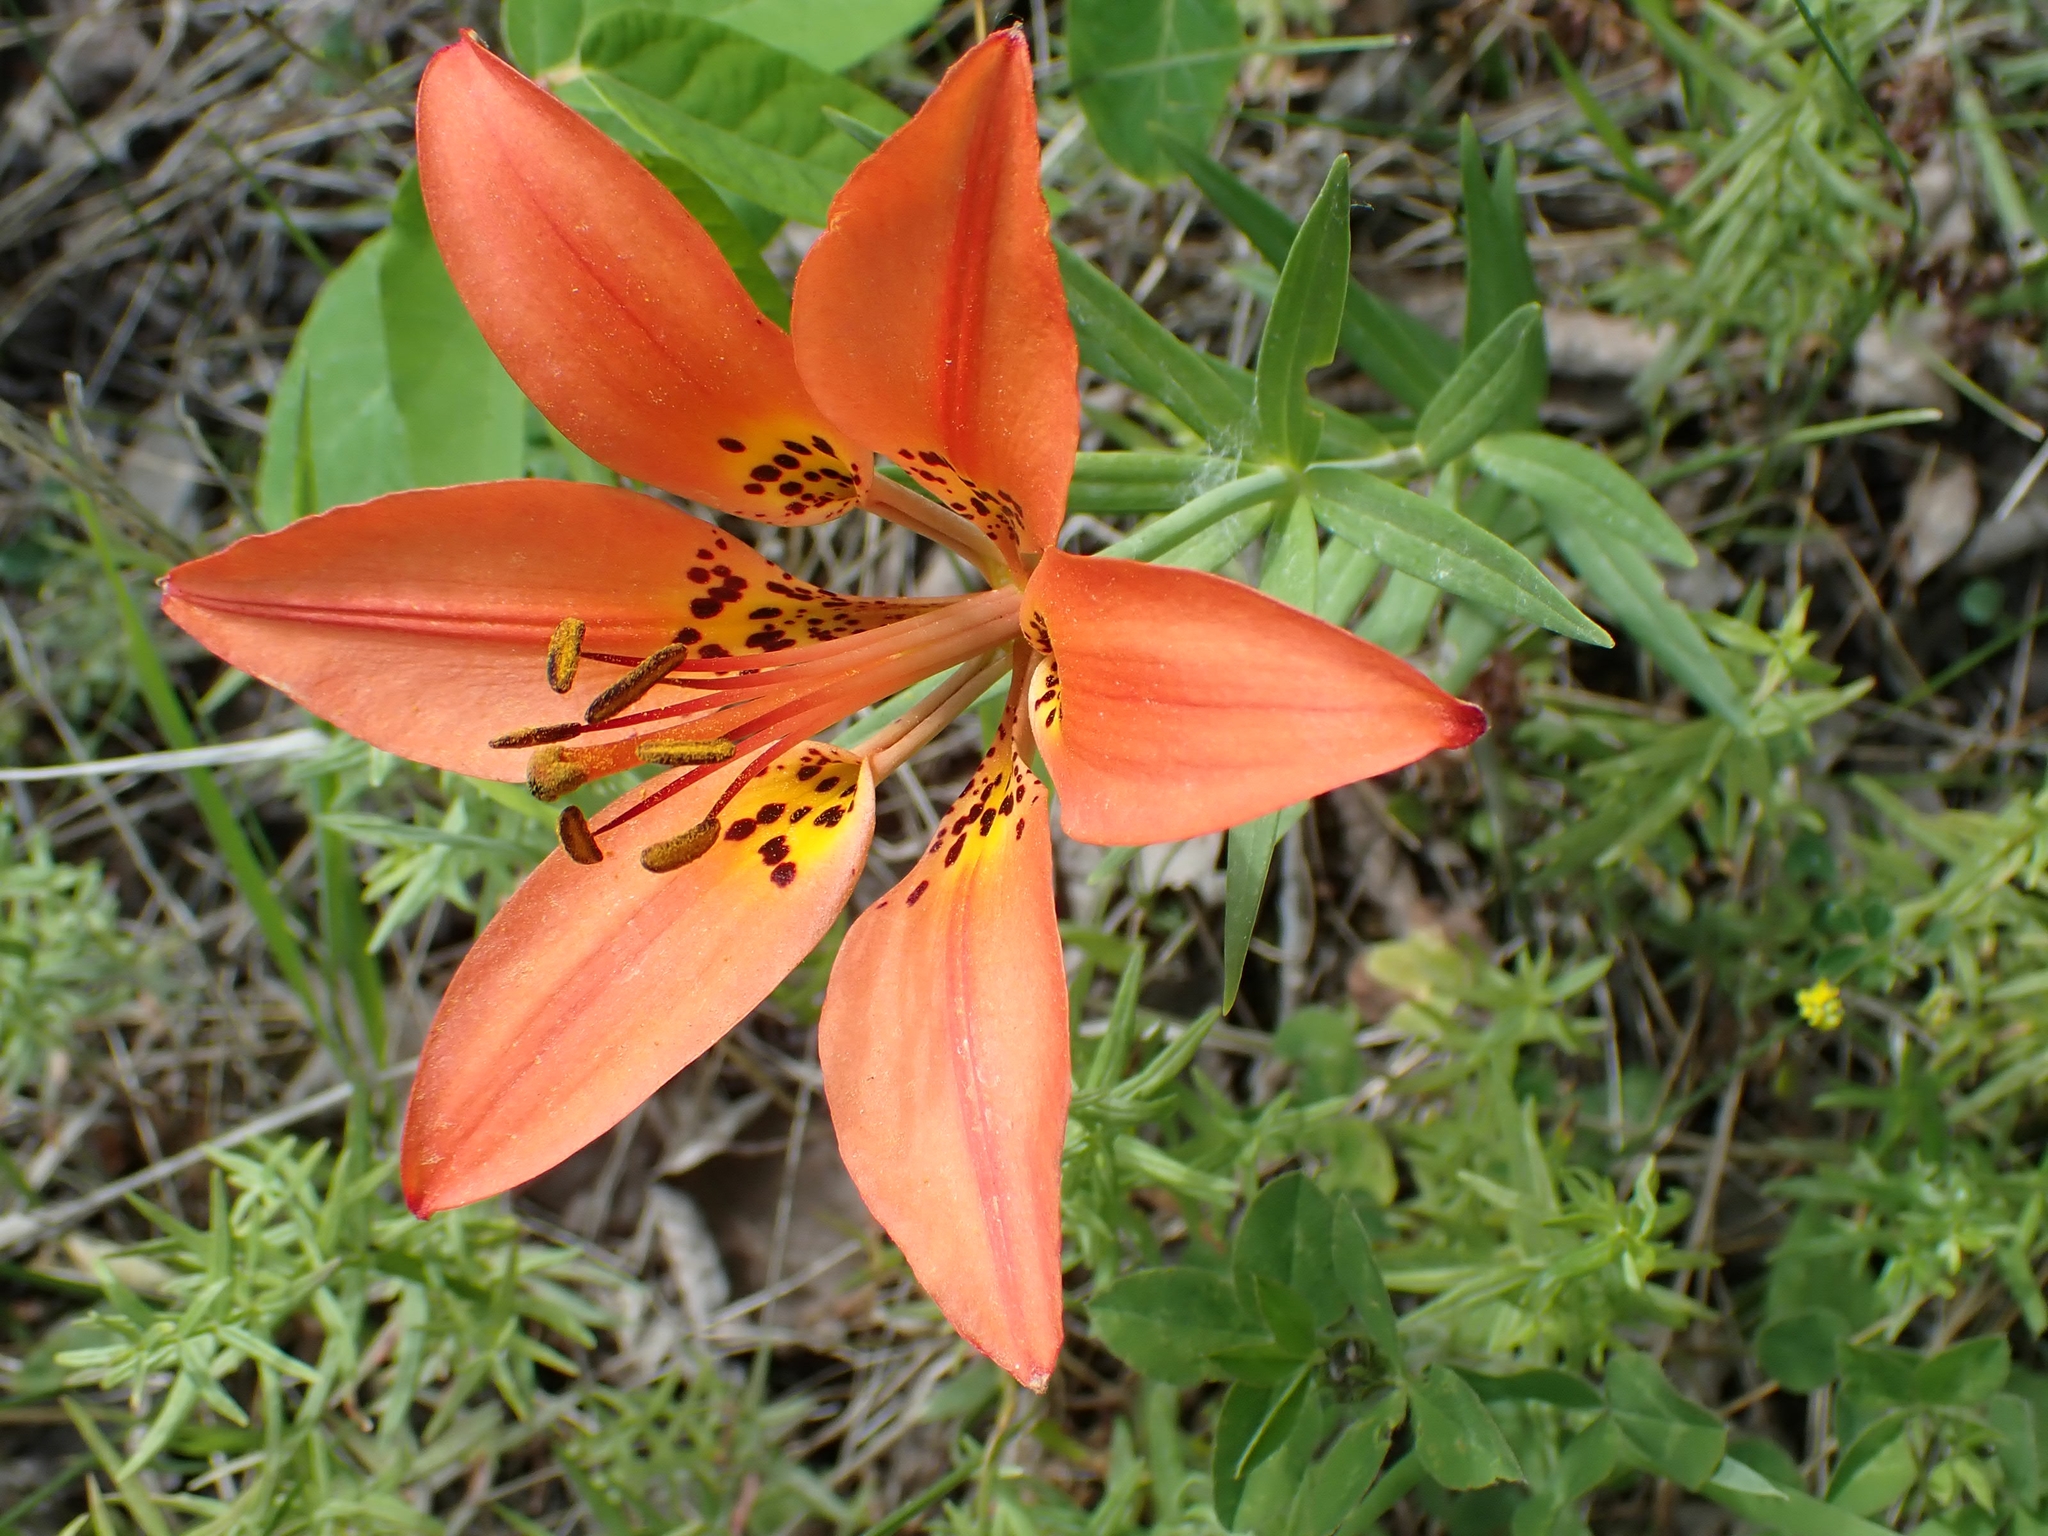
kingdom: Plantae
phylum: Tracheophyta
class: Liliopsida
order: Liliales
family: Liliaceae
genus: Lilium
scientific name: Lilium philadelphicum
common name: Red lily
